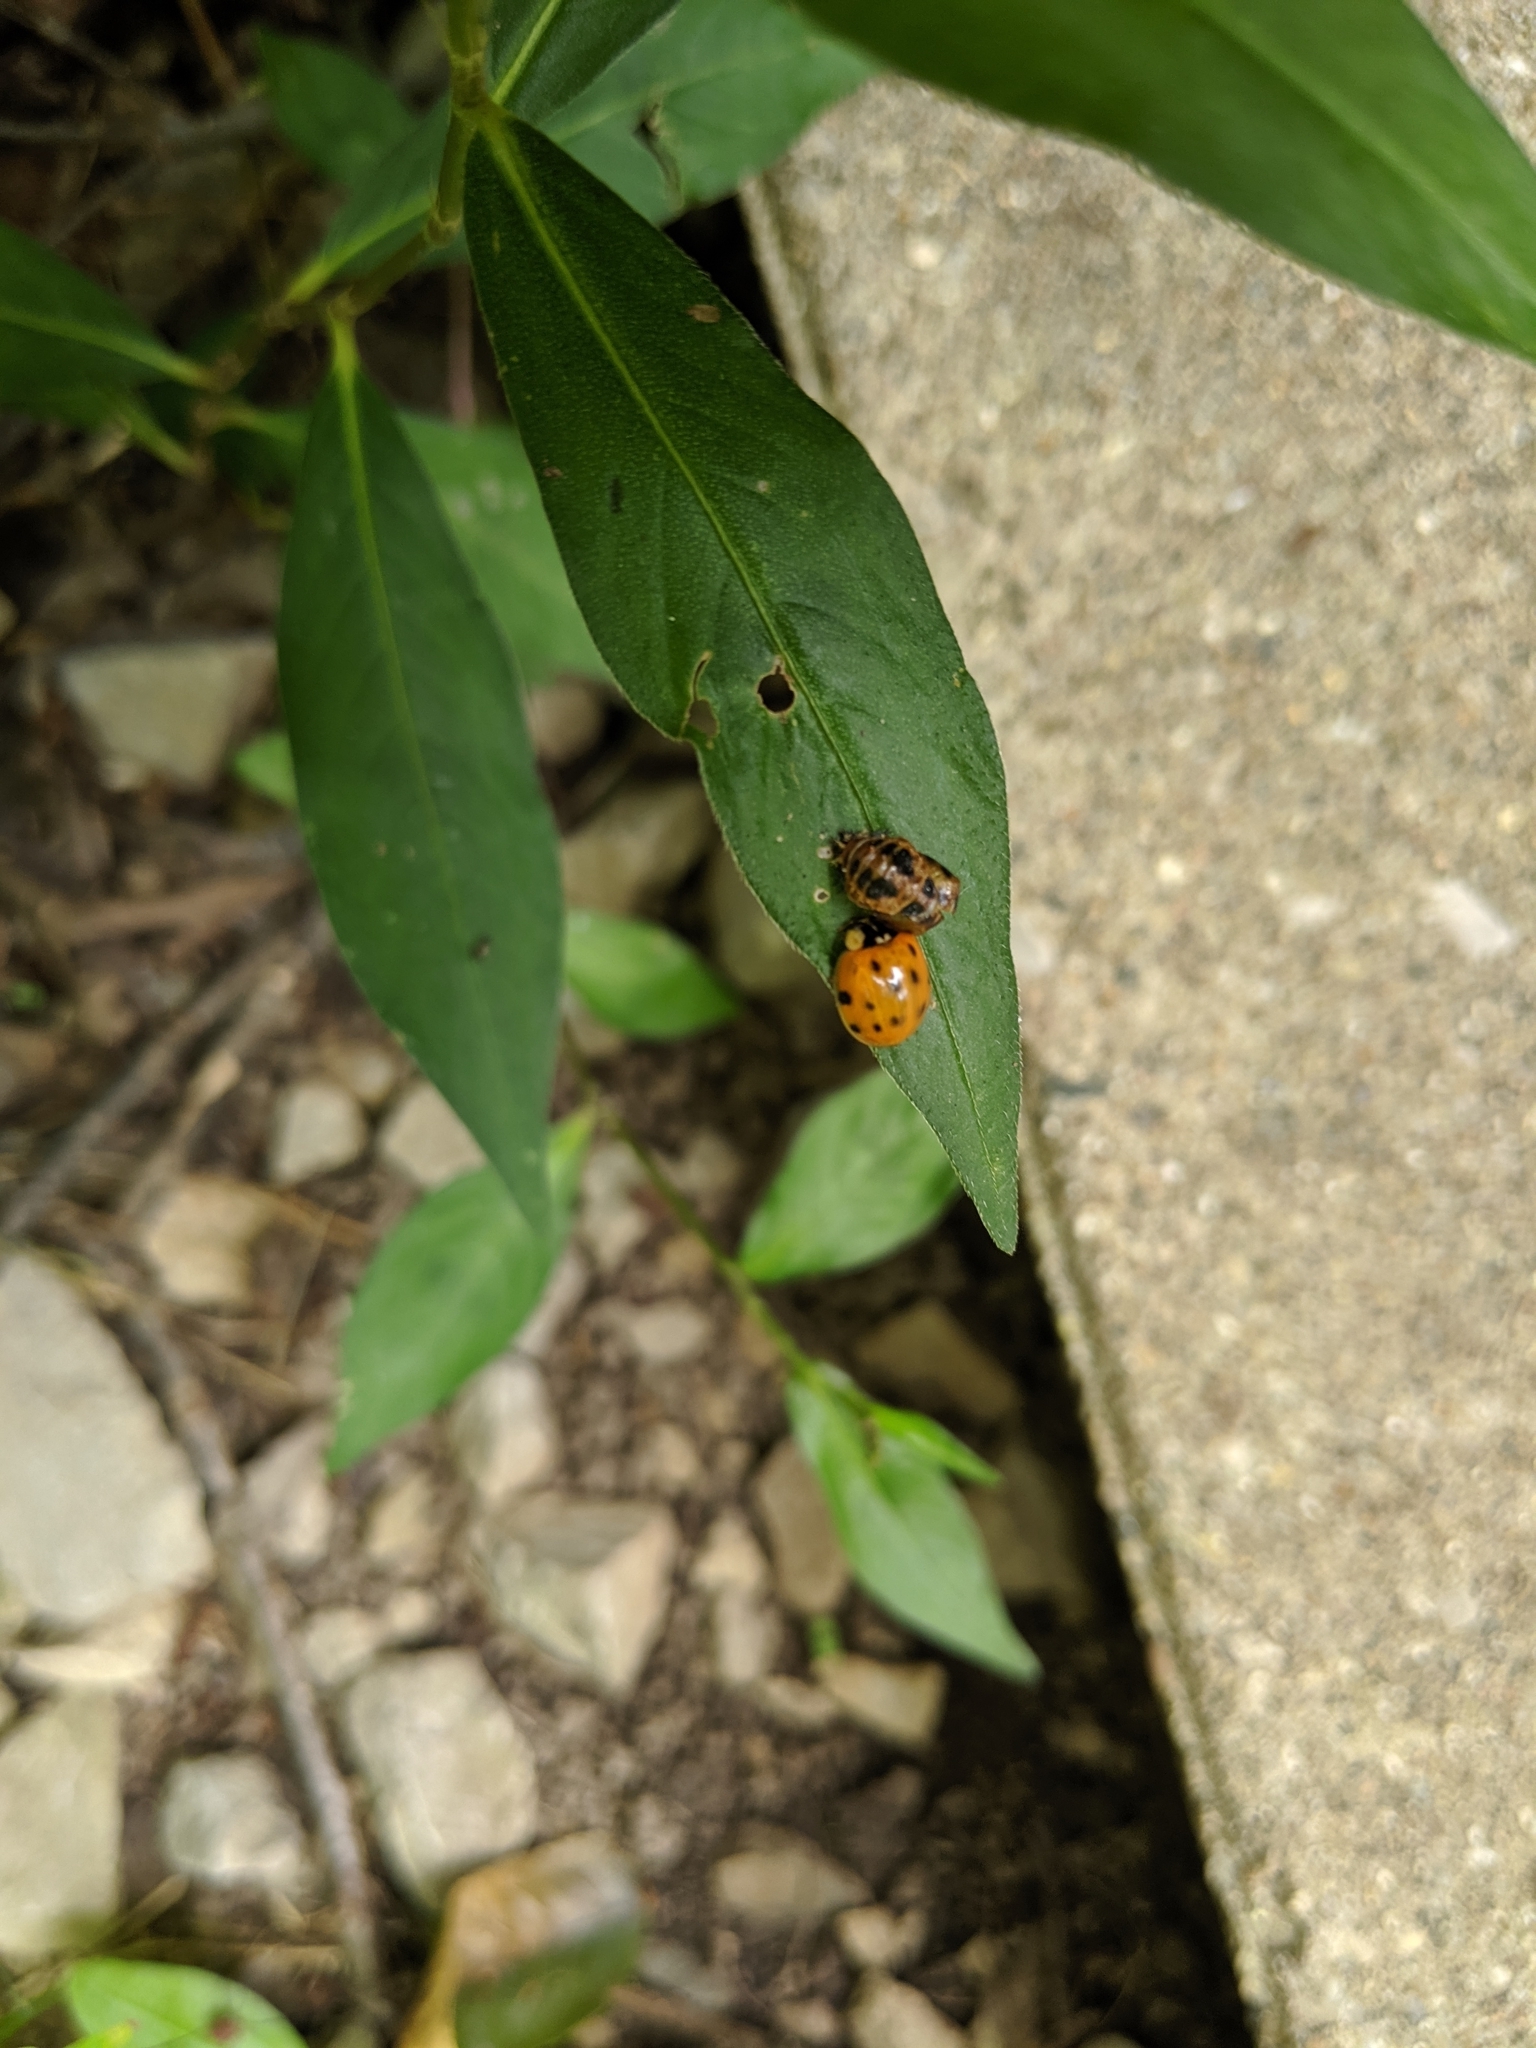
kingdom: Animalia
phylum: Arthropoda
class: Insecta
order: Coleoptera
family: Coccinellidae
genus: Harmonia
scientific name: Harmonia axyridis
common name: Harlequin ladybird
